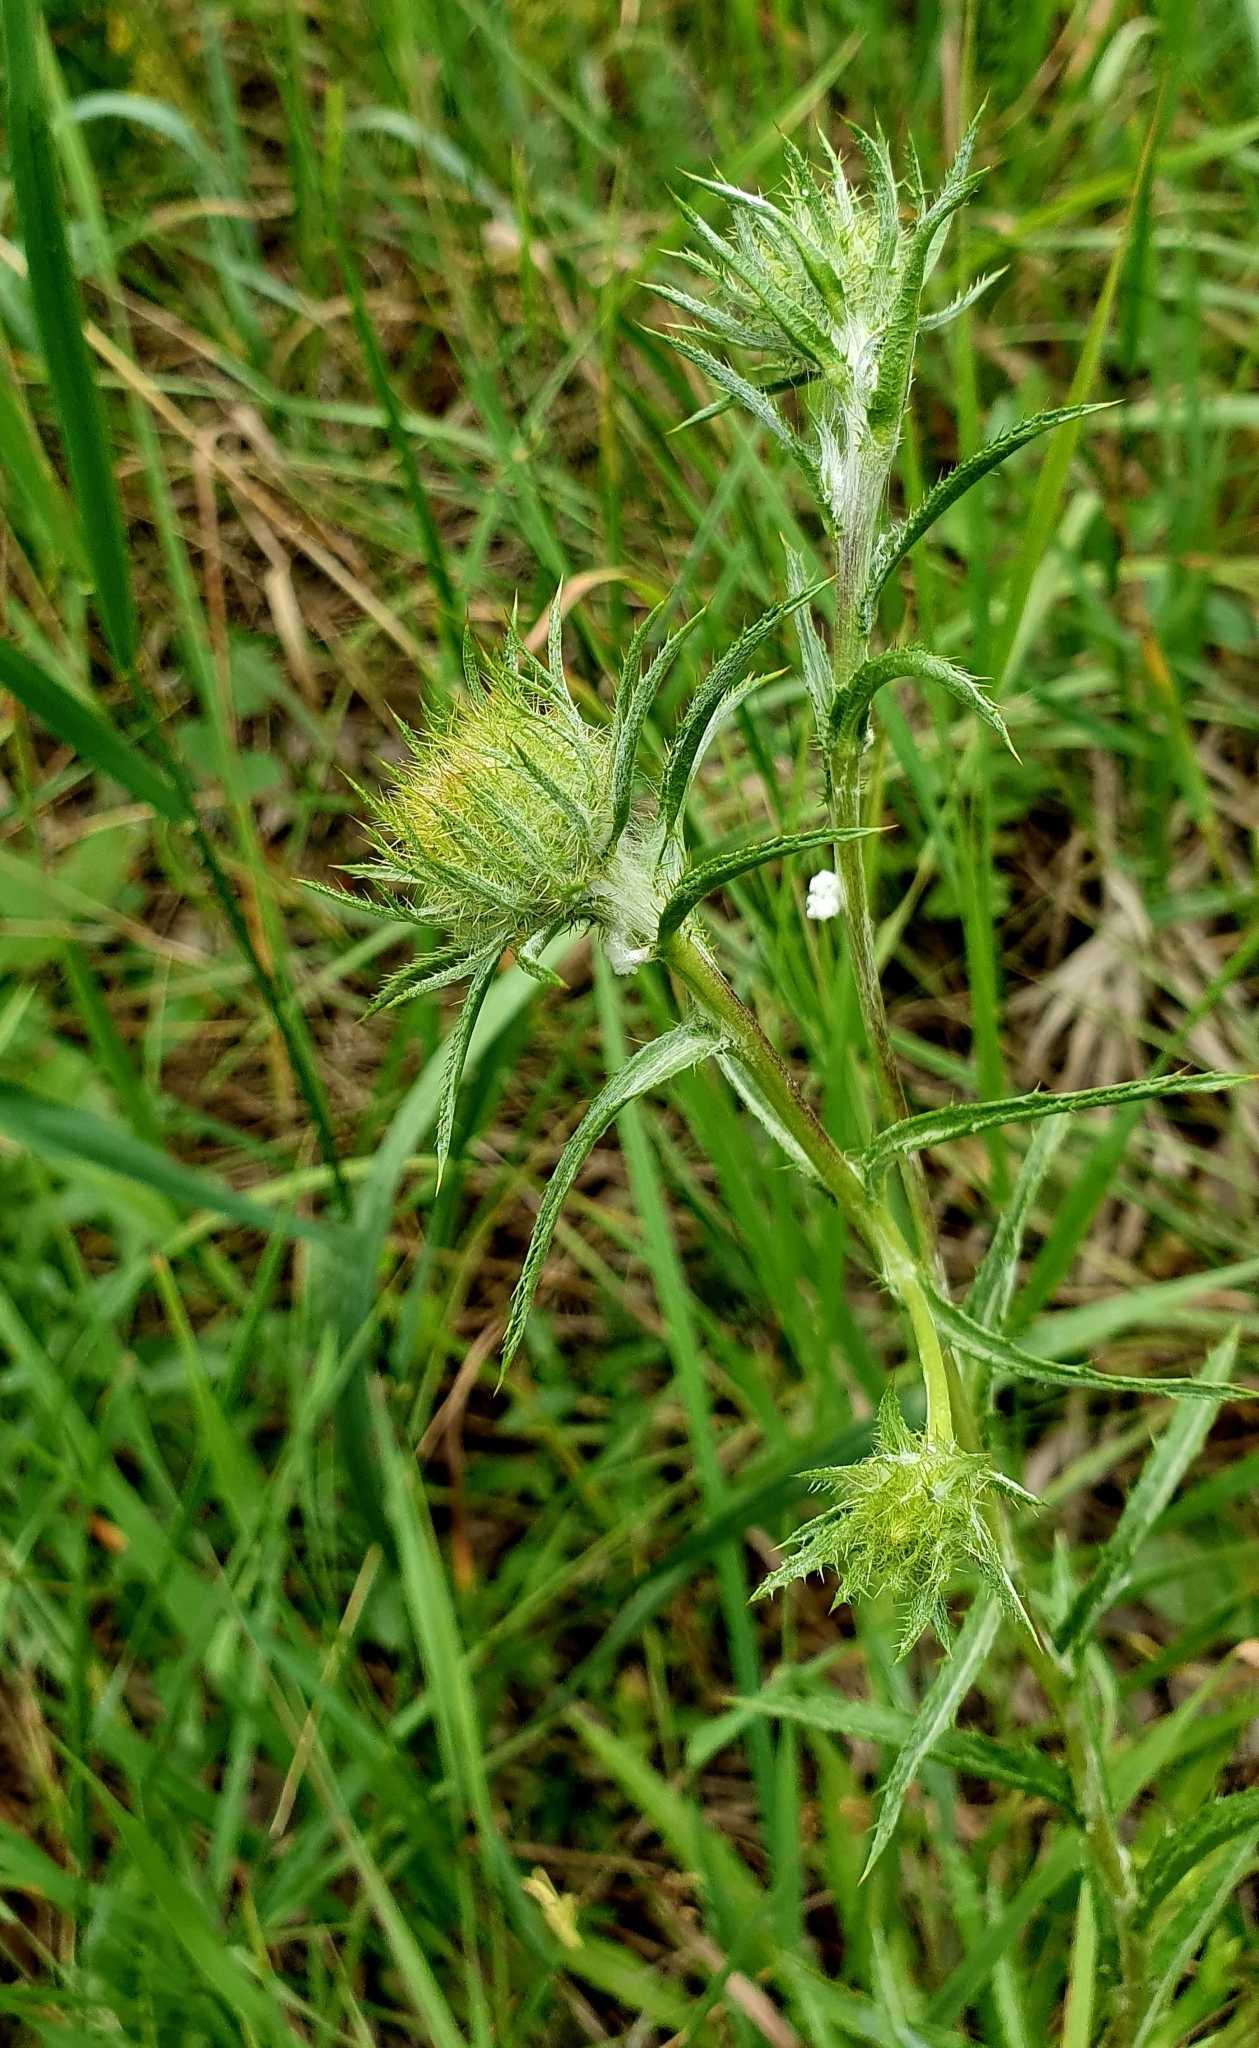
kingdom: Plantae
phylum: Tracheophyta
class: Magnoliopsida
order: Asterales
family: Asteraceae
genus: Carlina
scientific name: Carlina biebersteinii
